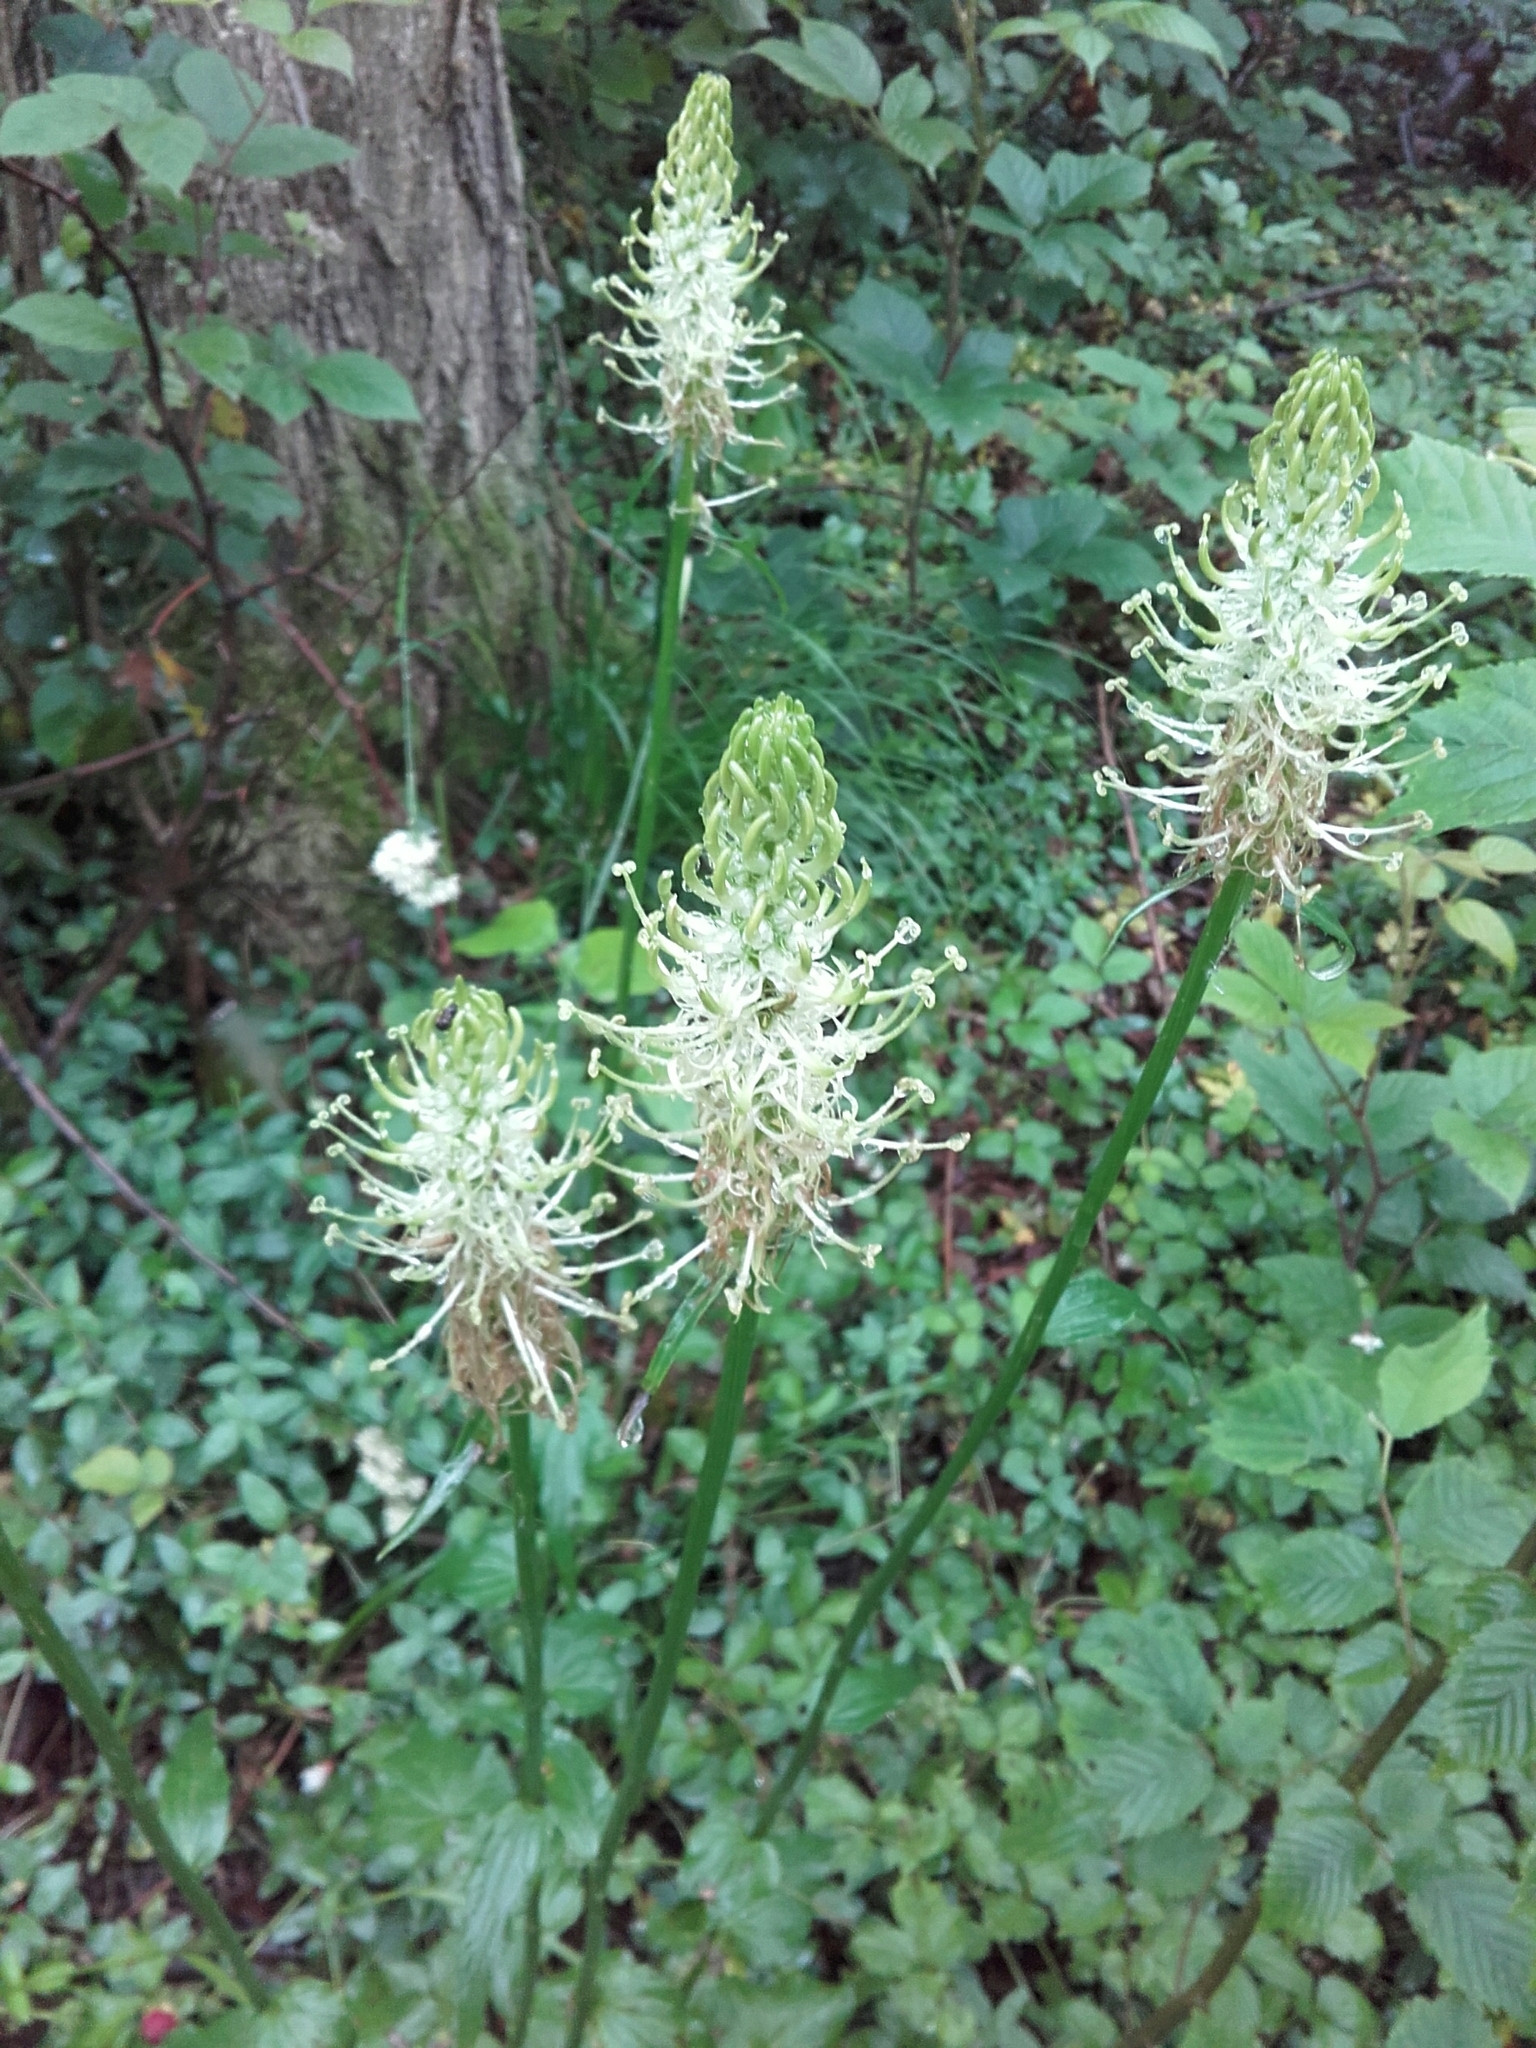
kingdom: Plantae
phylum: Tracheophyta
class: Magnoliopsida
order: Asterales
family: Campanulaceae
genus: Phyteuma
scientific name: Phyteuma spicatum
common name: Spiked rampion
